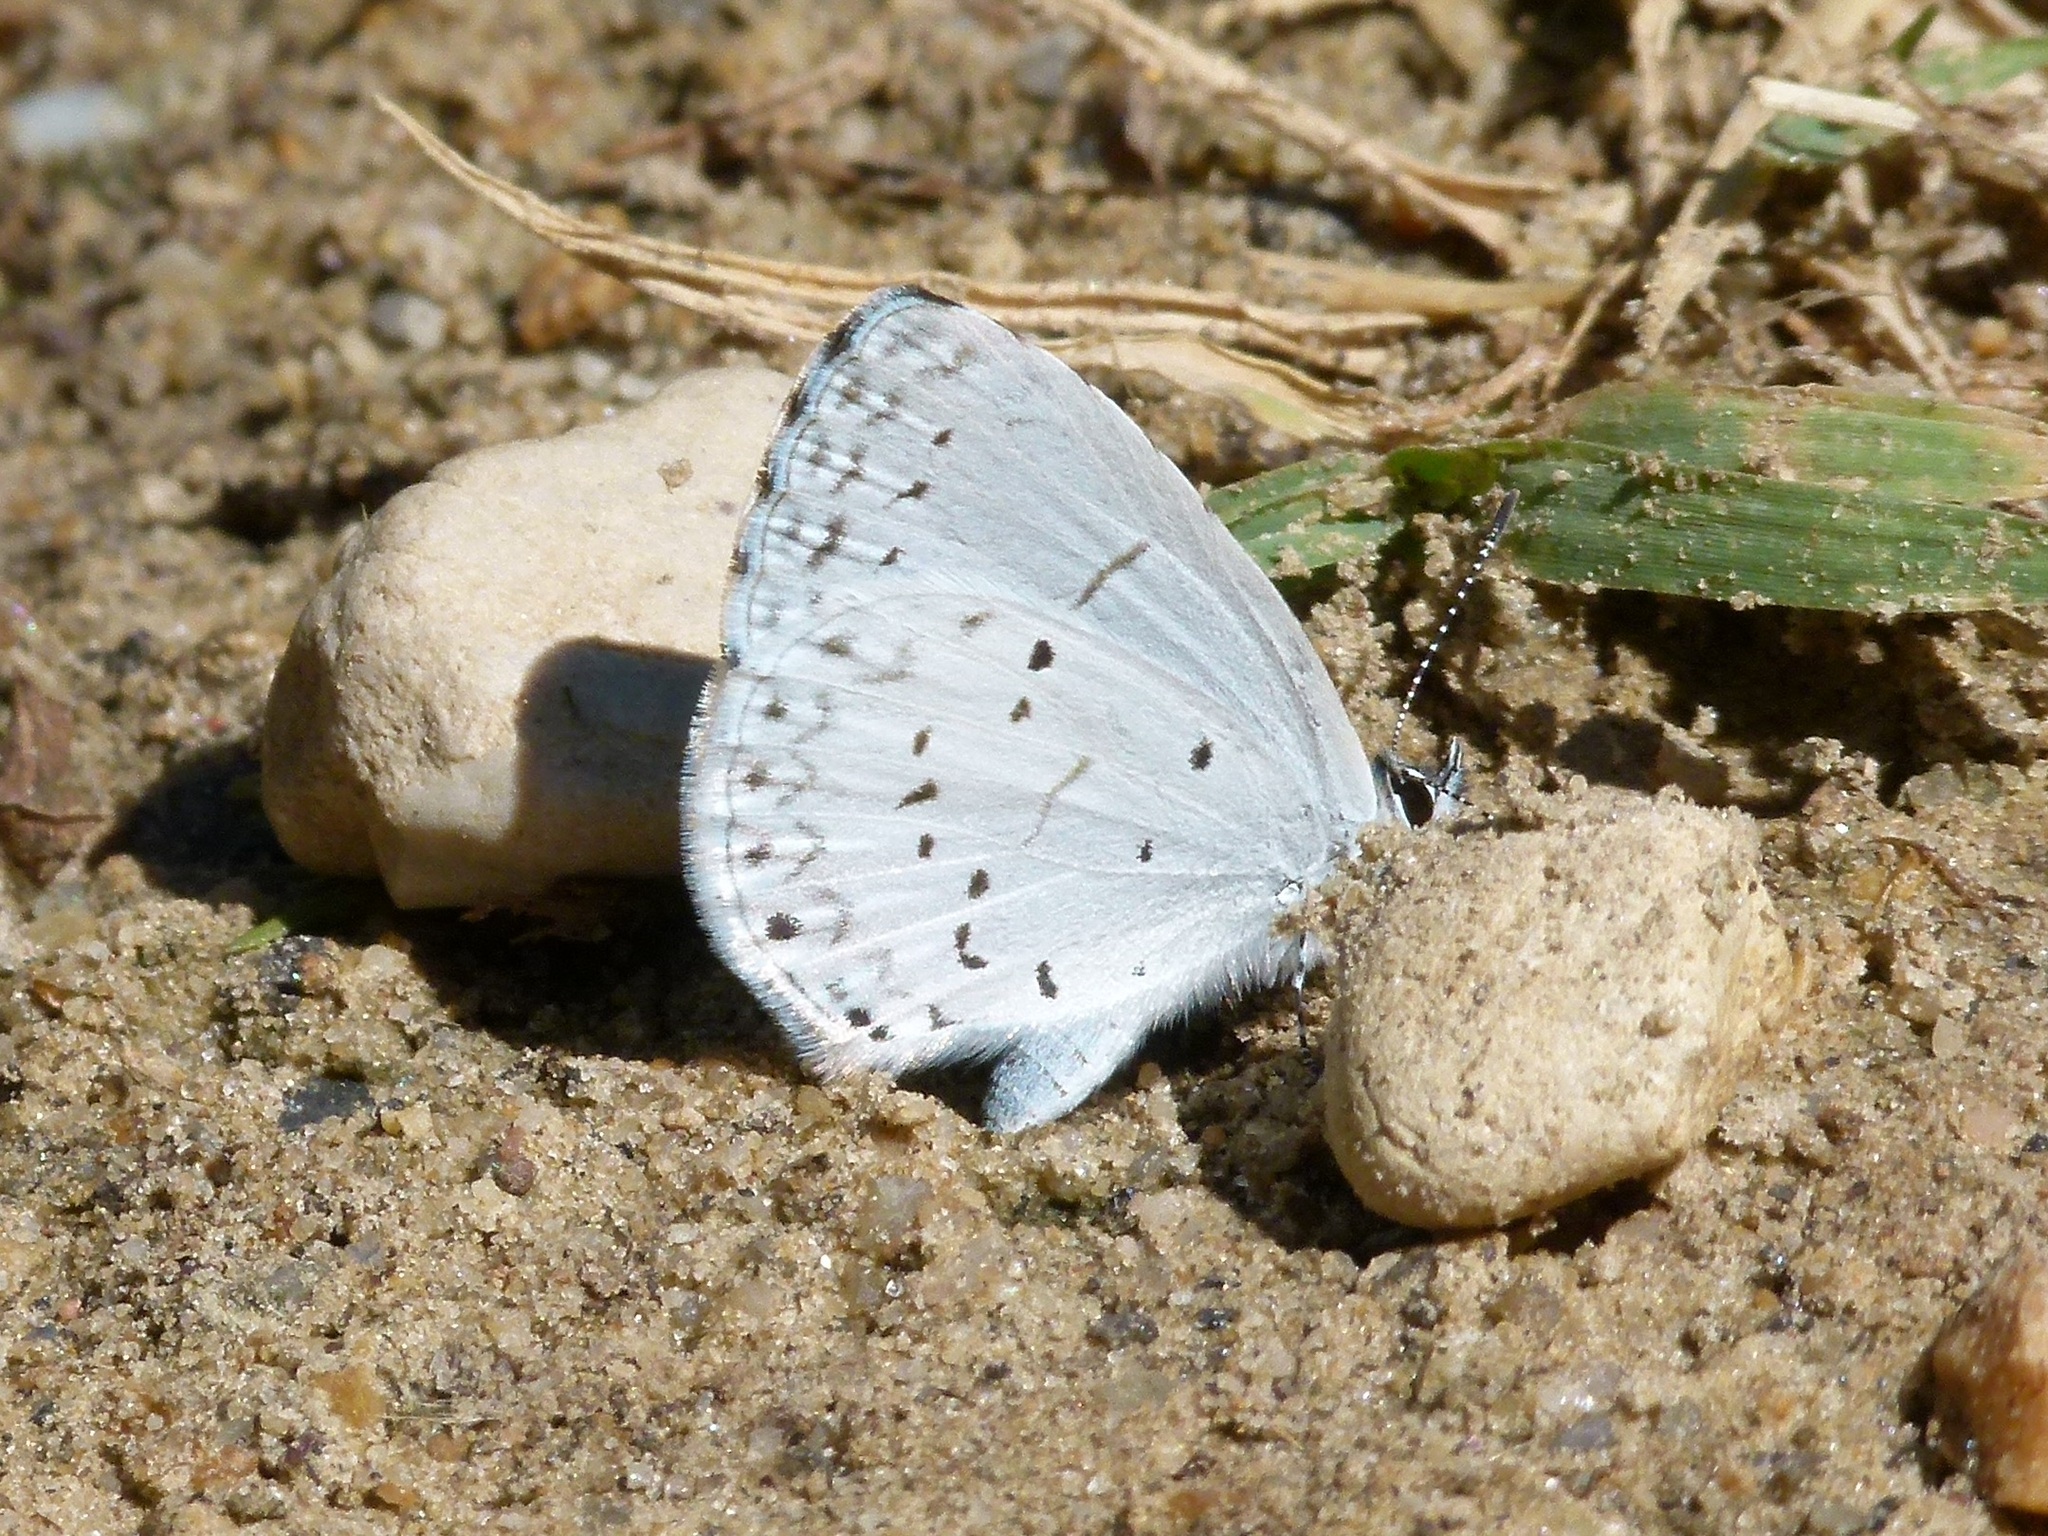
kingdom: Animalia
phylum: Arthropoda
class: Insecta
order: Lepidoptera
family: Lycaenidae
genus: Cyaniris
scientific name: Cyaniris neglecta
